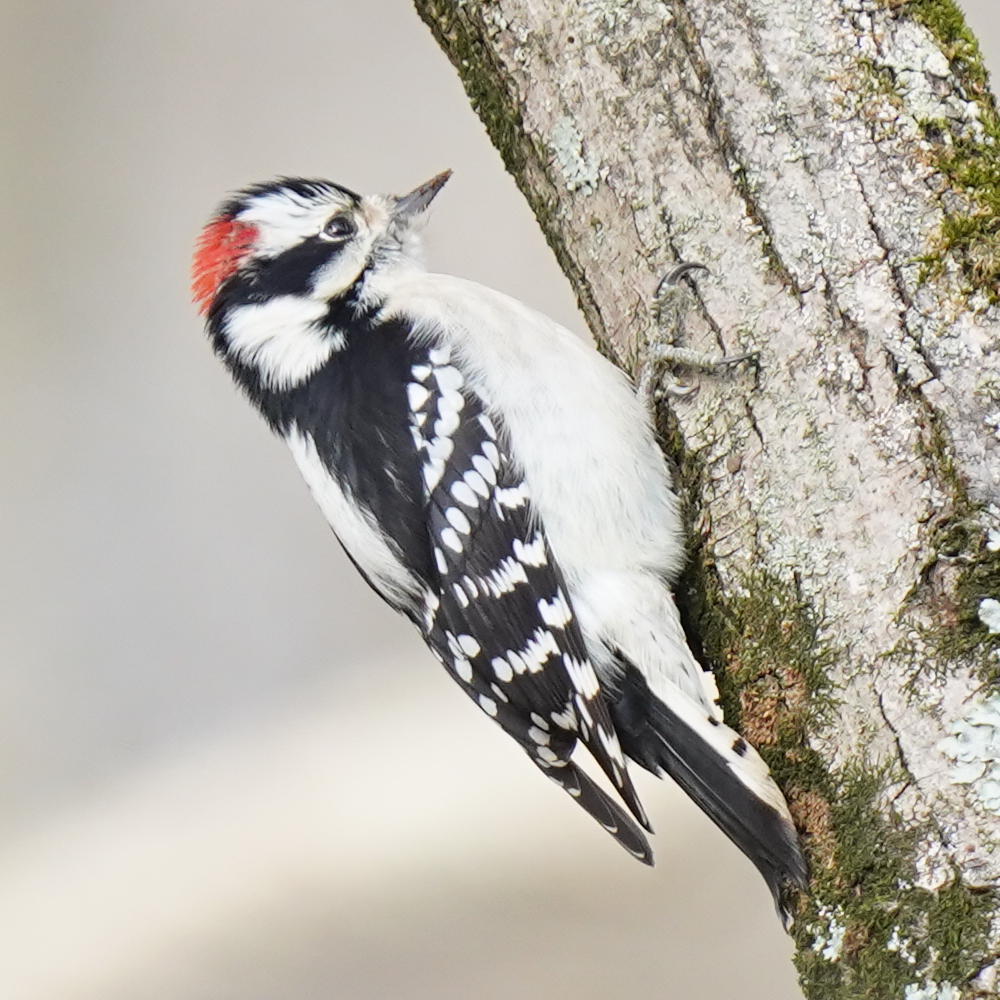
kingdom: Animalia
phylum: Chordata
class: Aves
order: Piciformes
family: Picidae
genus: Dryobates
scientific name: Dryobates pubescens
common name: Downy woodpecker
